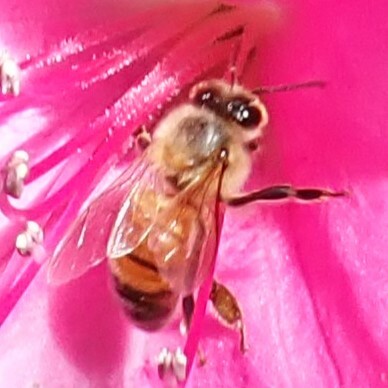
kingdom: Animalia
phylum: Arthropoda
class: Insecta
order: Hymenoptera
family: Apidae
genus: Apis
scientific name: Apis mellifera
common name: Honey bee
